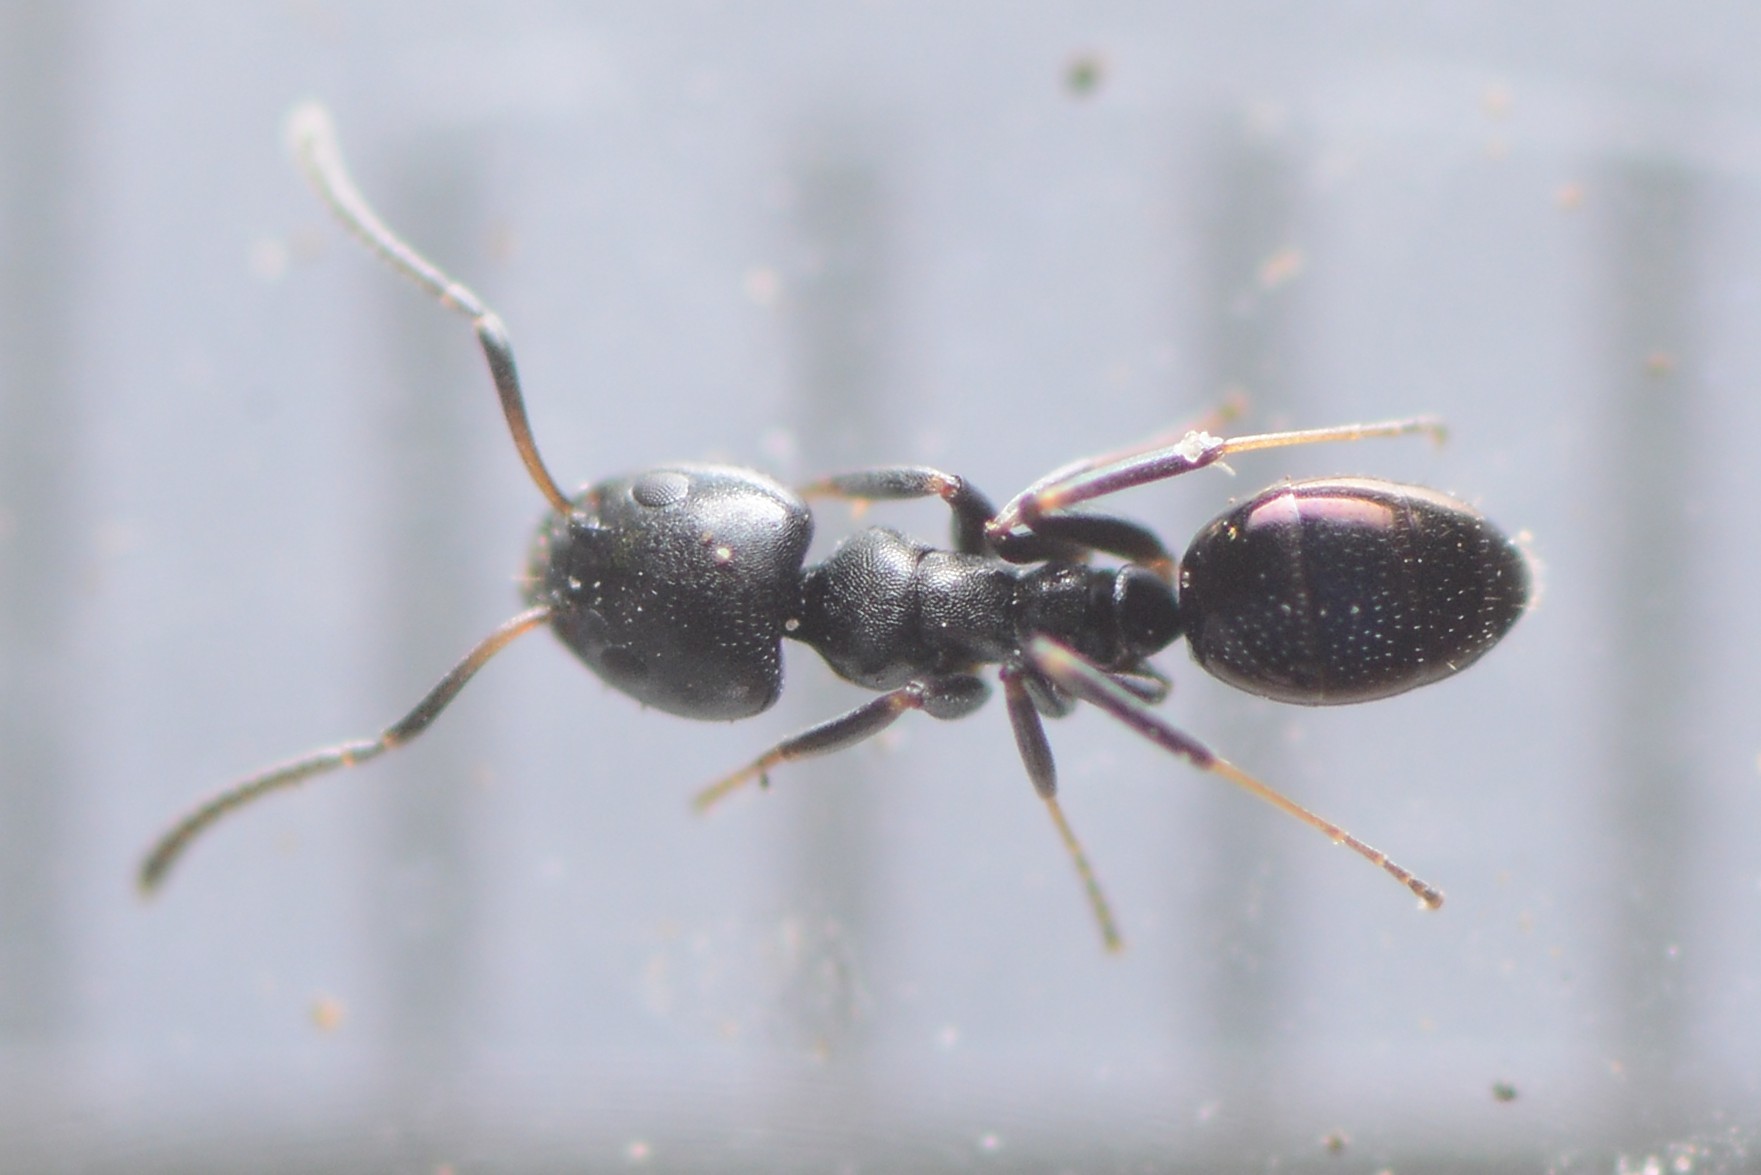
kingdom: Animalia
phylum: Arthropoda
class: Insecta
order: Hymenoptera
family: Formicidae
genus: Ochetellus
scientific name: Ochetellus glaber
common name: Ant
